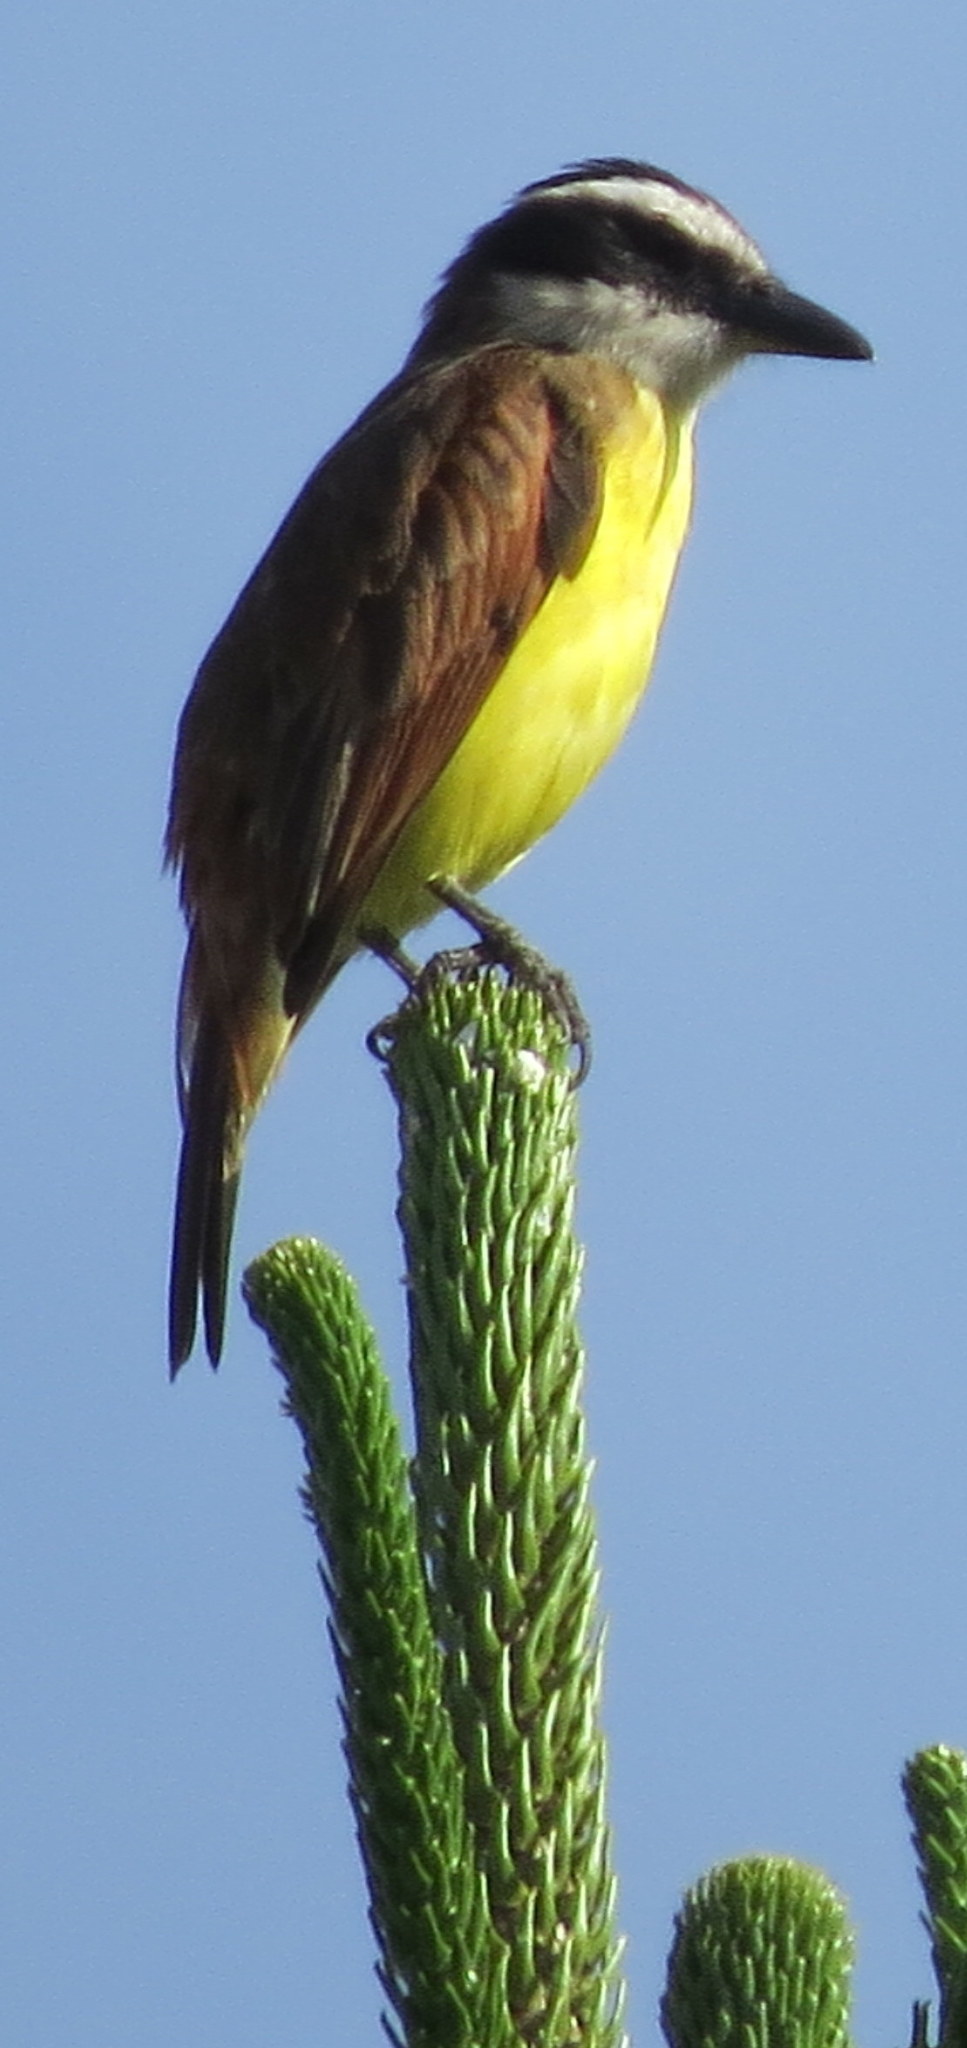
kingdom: Animalia
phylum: Chordata
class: Aves
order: Passeriformes
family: Tyrannidae
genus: Pitangus
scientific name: Pitangus sulphuratus
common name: Great kiskadee
